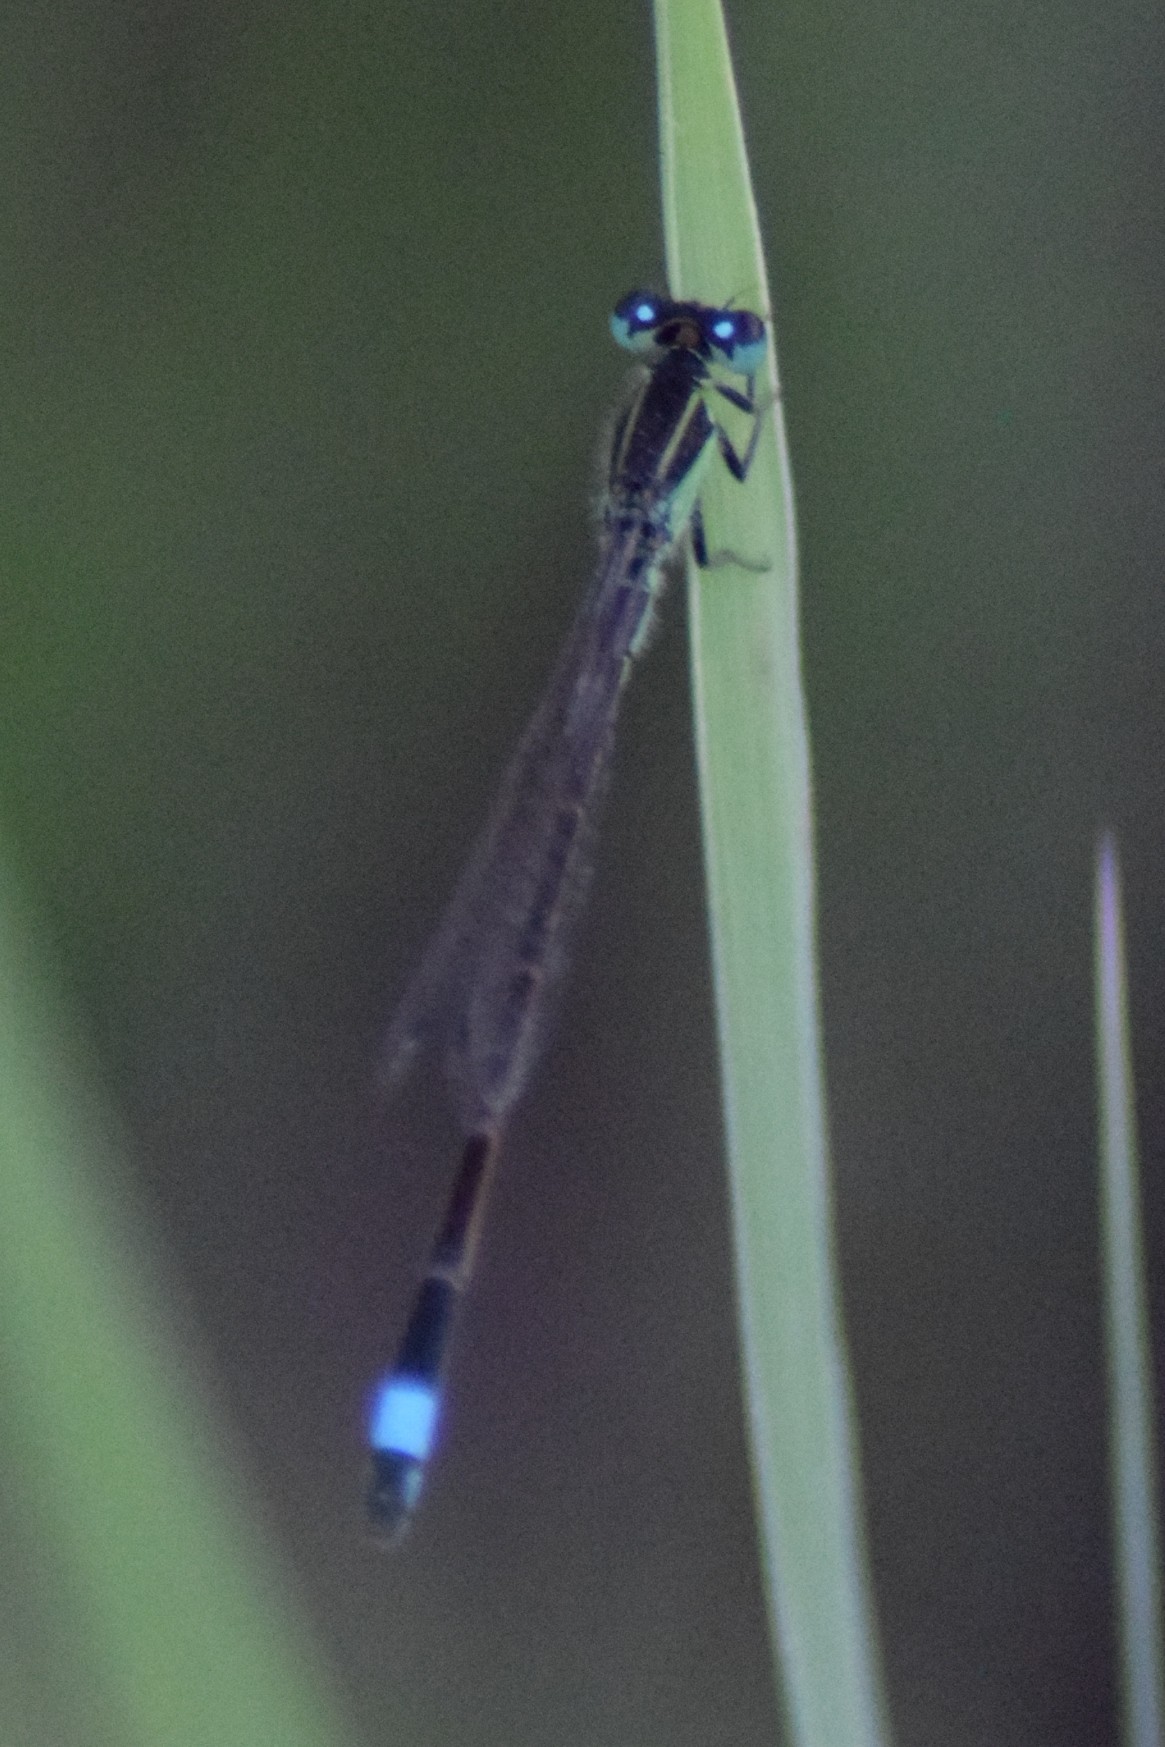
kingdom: Animalia
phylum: Arthropoda
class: Insecta
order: Odonata
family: Coenagrionidae
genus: Ischnura
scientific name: Ischnura ramburii
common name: Rambur's forktail
